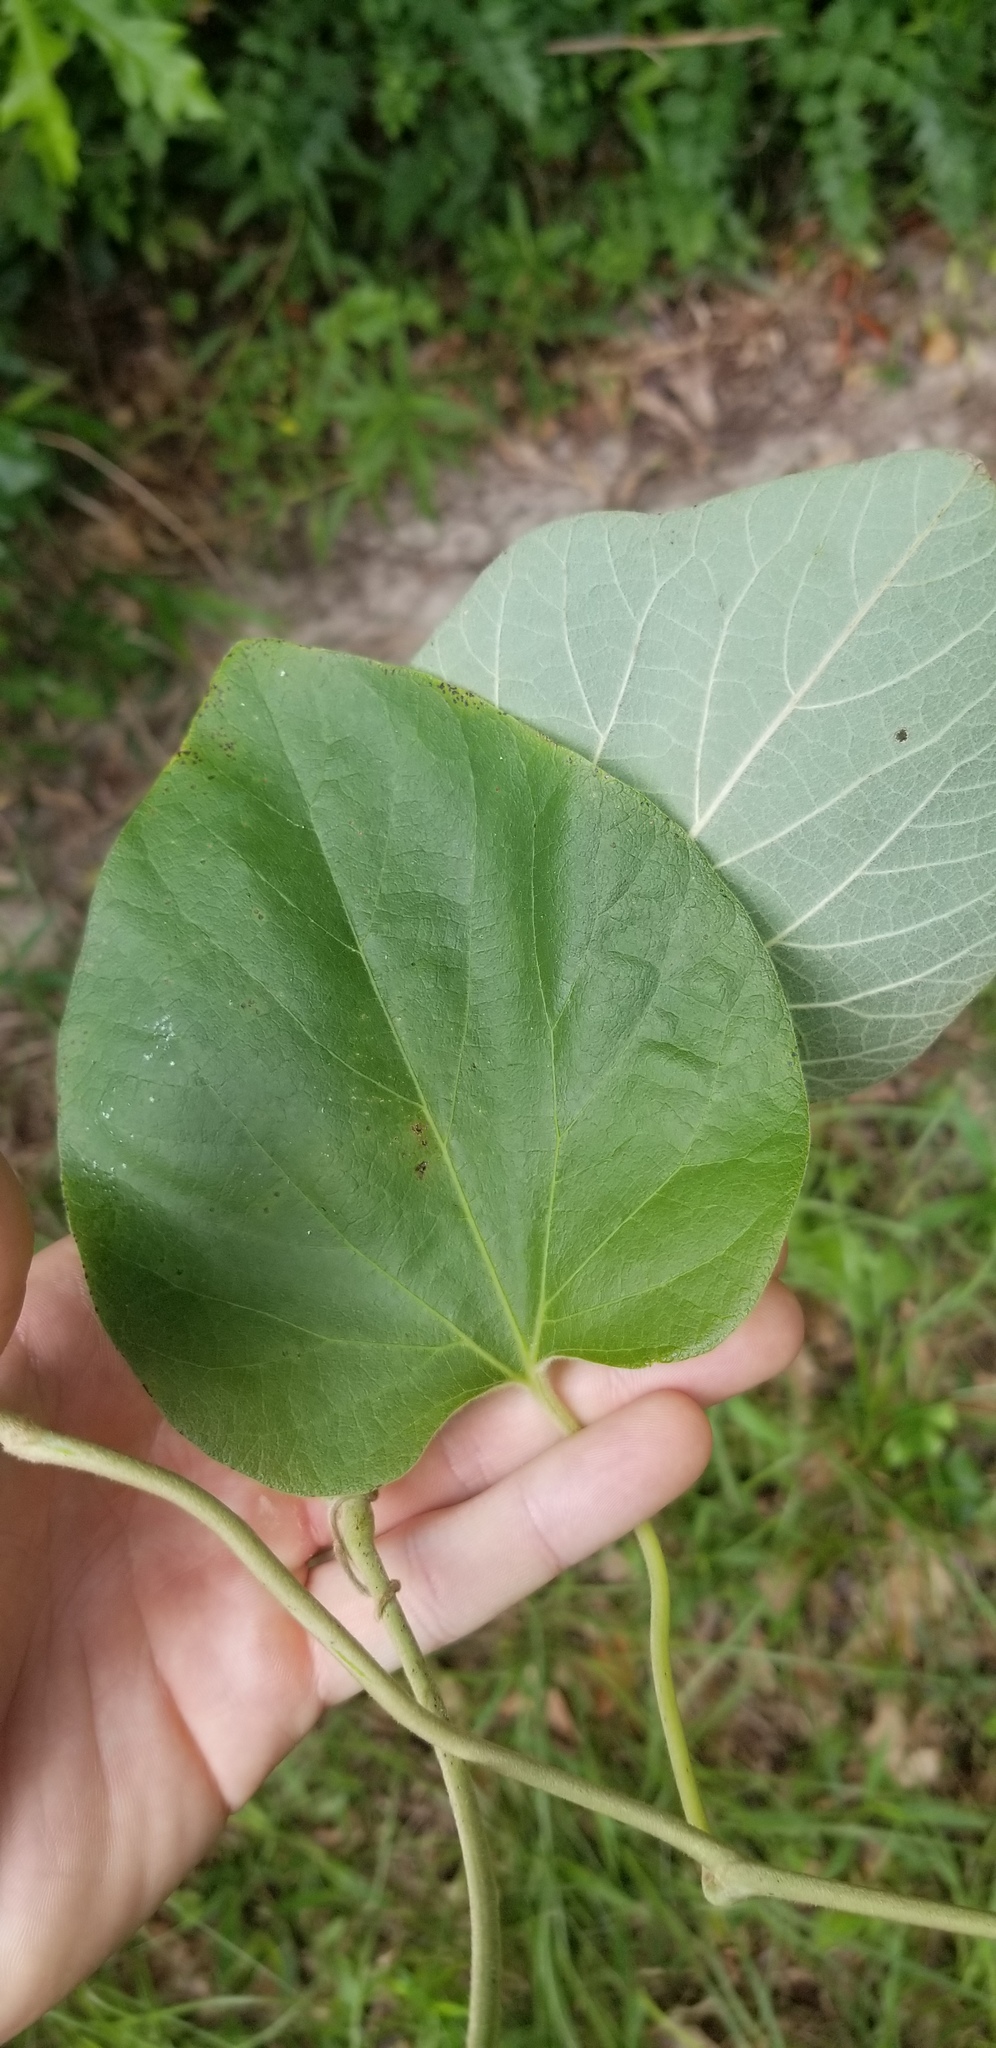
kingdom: Plantae
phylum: Tracheophyta
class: Magnoliopsida
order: Piperales
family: Aristolochiaceae
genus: Isotrema
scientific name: Isotrema tomentosum
